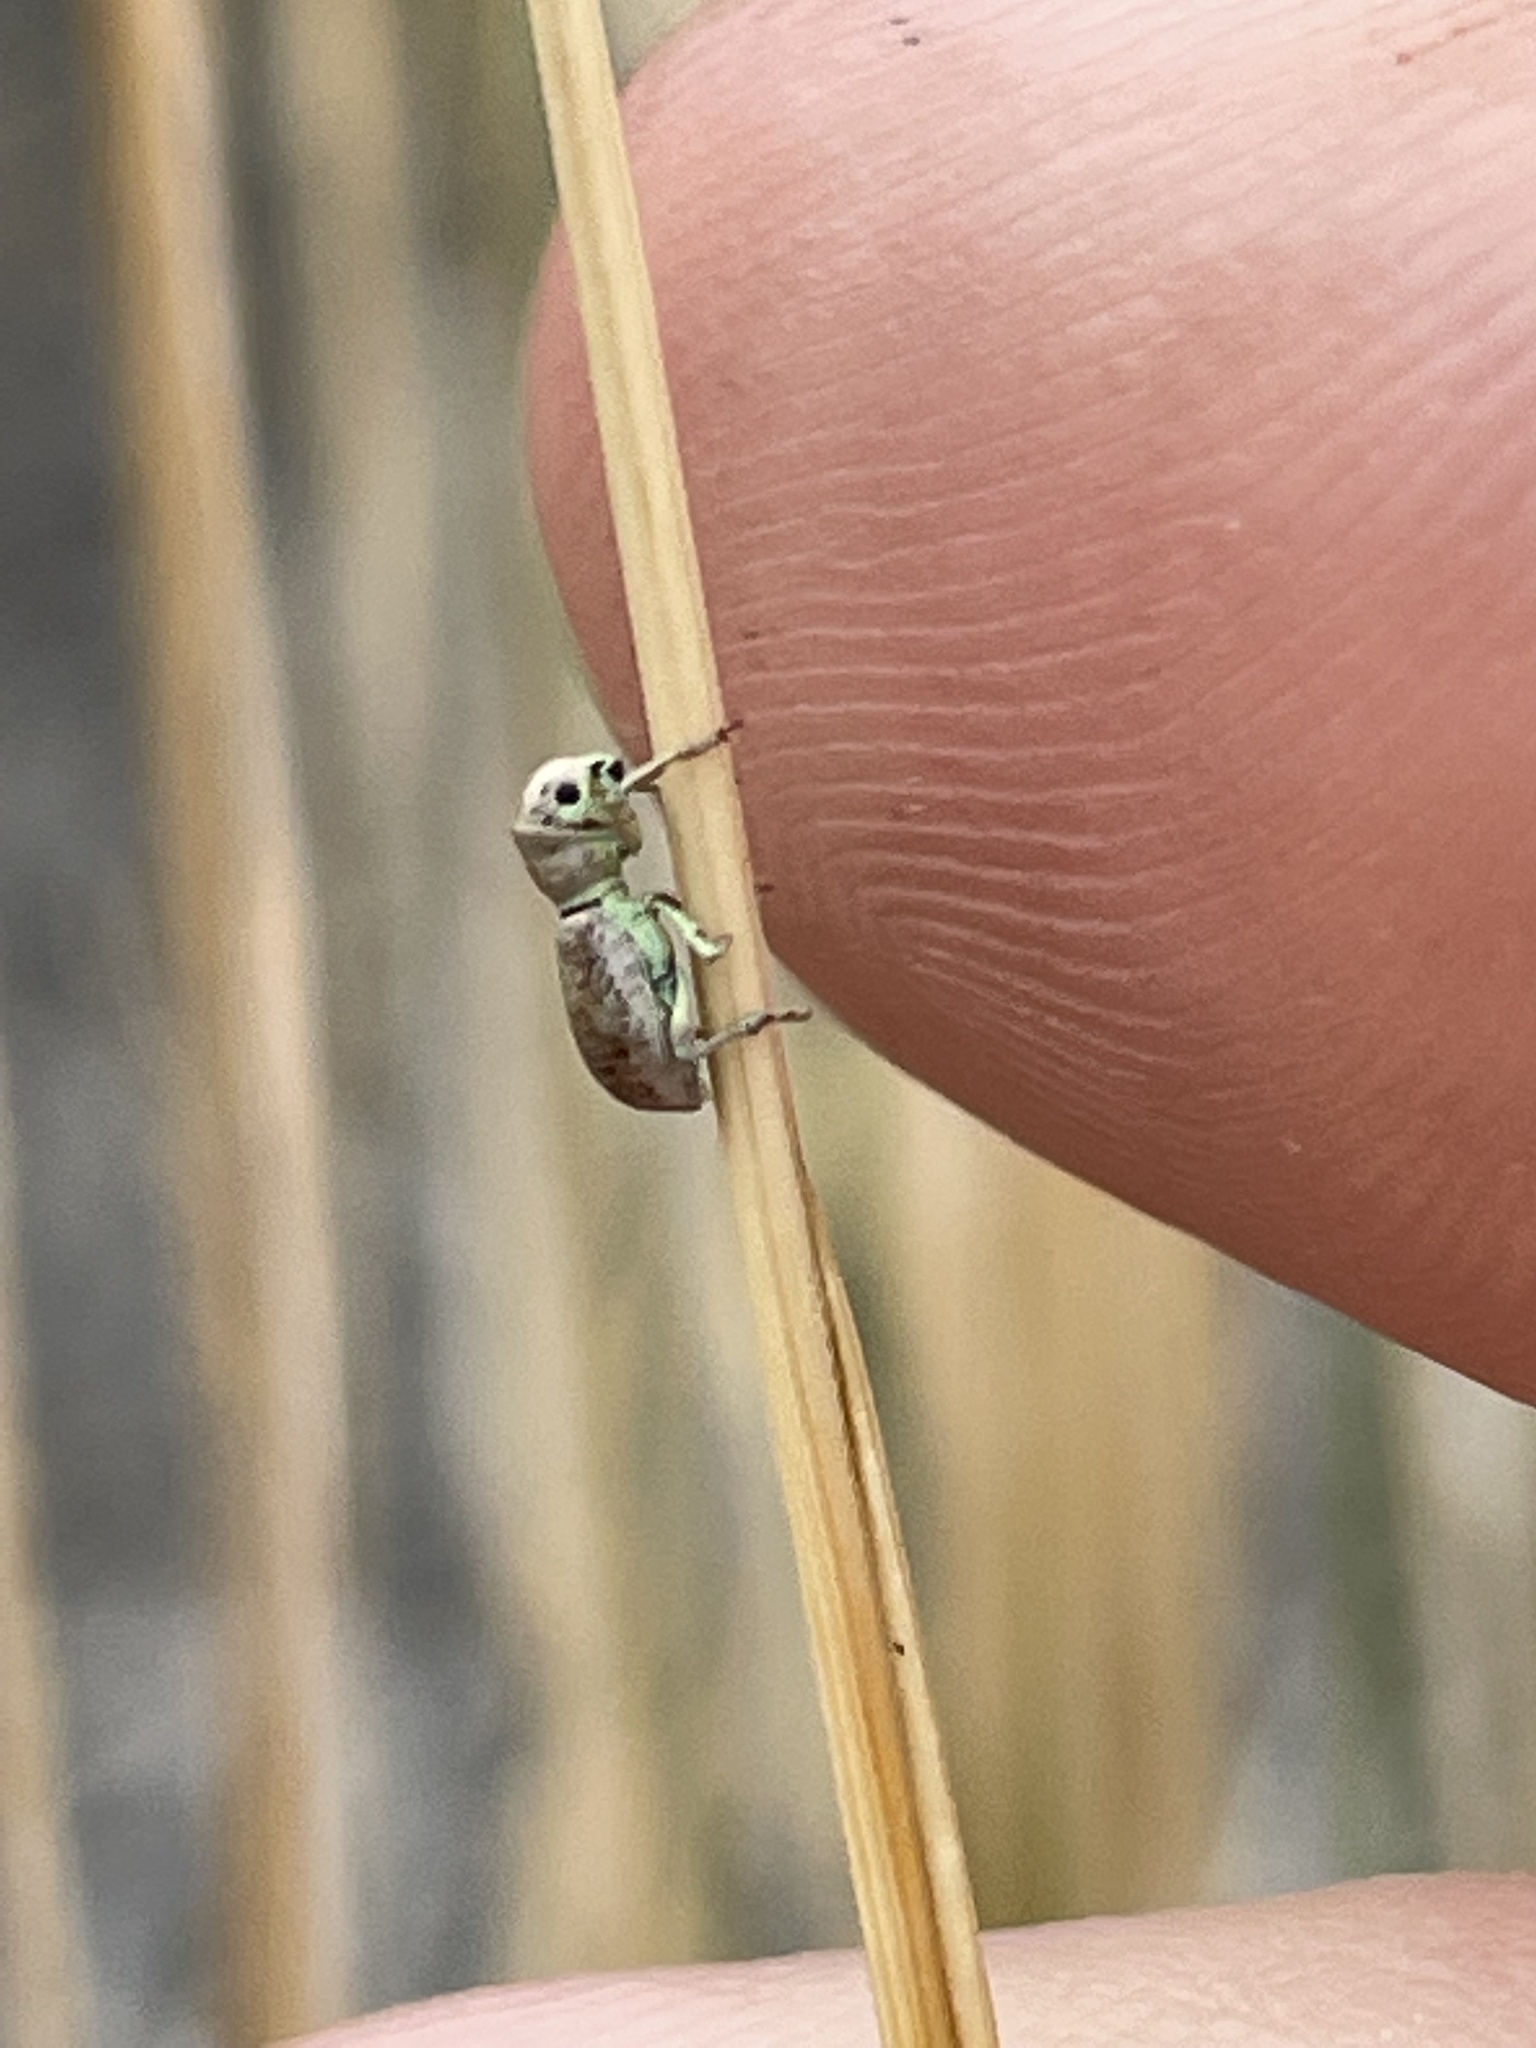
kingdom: Animalia
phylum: Arthropoda
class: Insecta
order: Coleoptera
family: Curculionidae
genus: Pandeleteinus
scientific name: Pandeleteinus submetallicus
